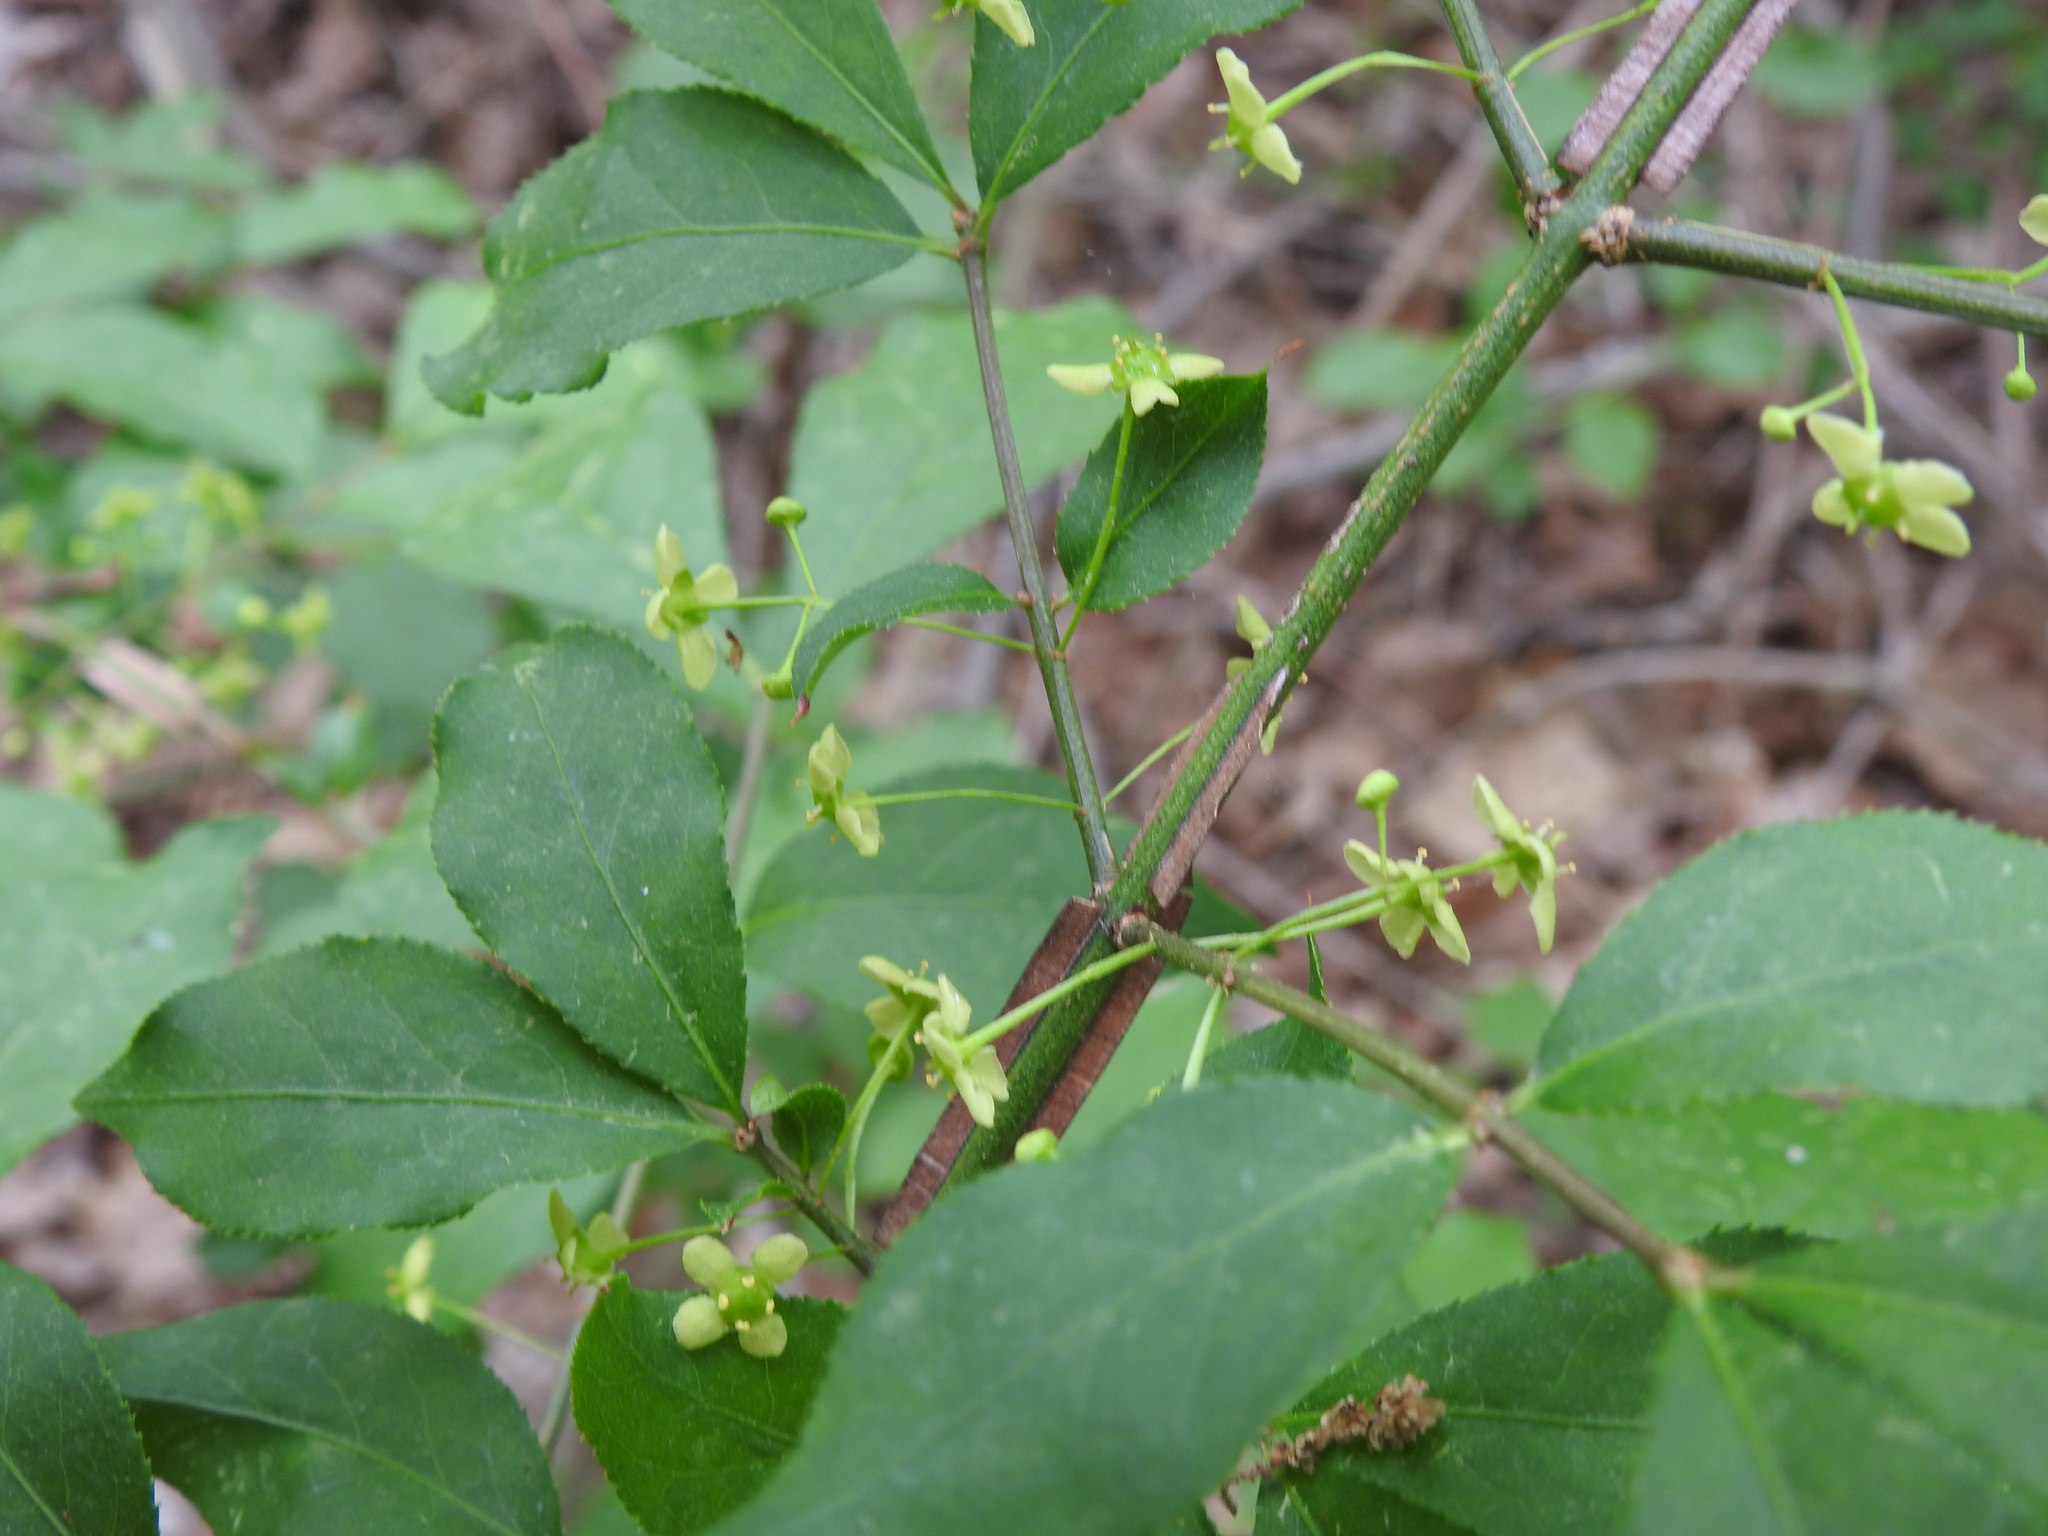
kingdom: Plantae
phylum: Tracheophyta
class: Magnoliopsida
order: Celastrales
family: Celastraceae
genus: Euonymus
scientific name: Euonymus alatus
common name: Winged euonymus
